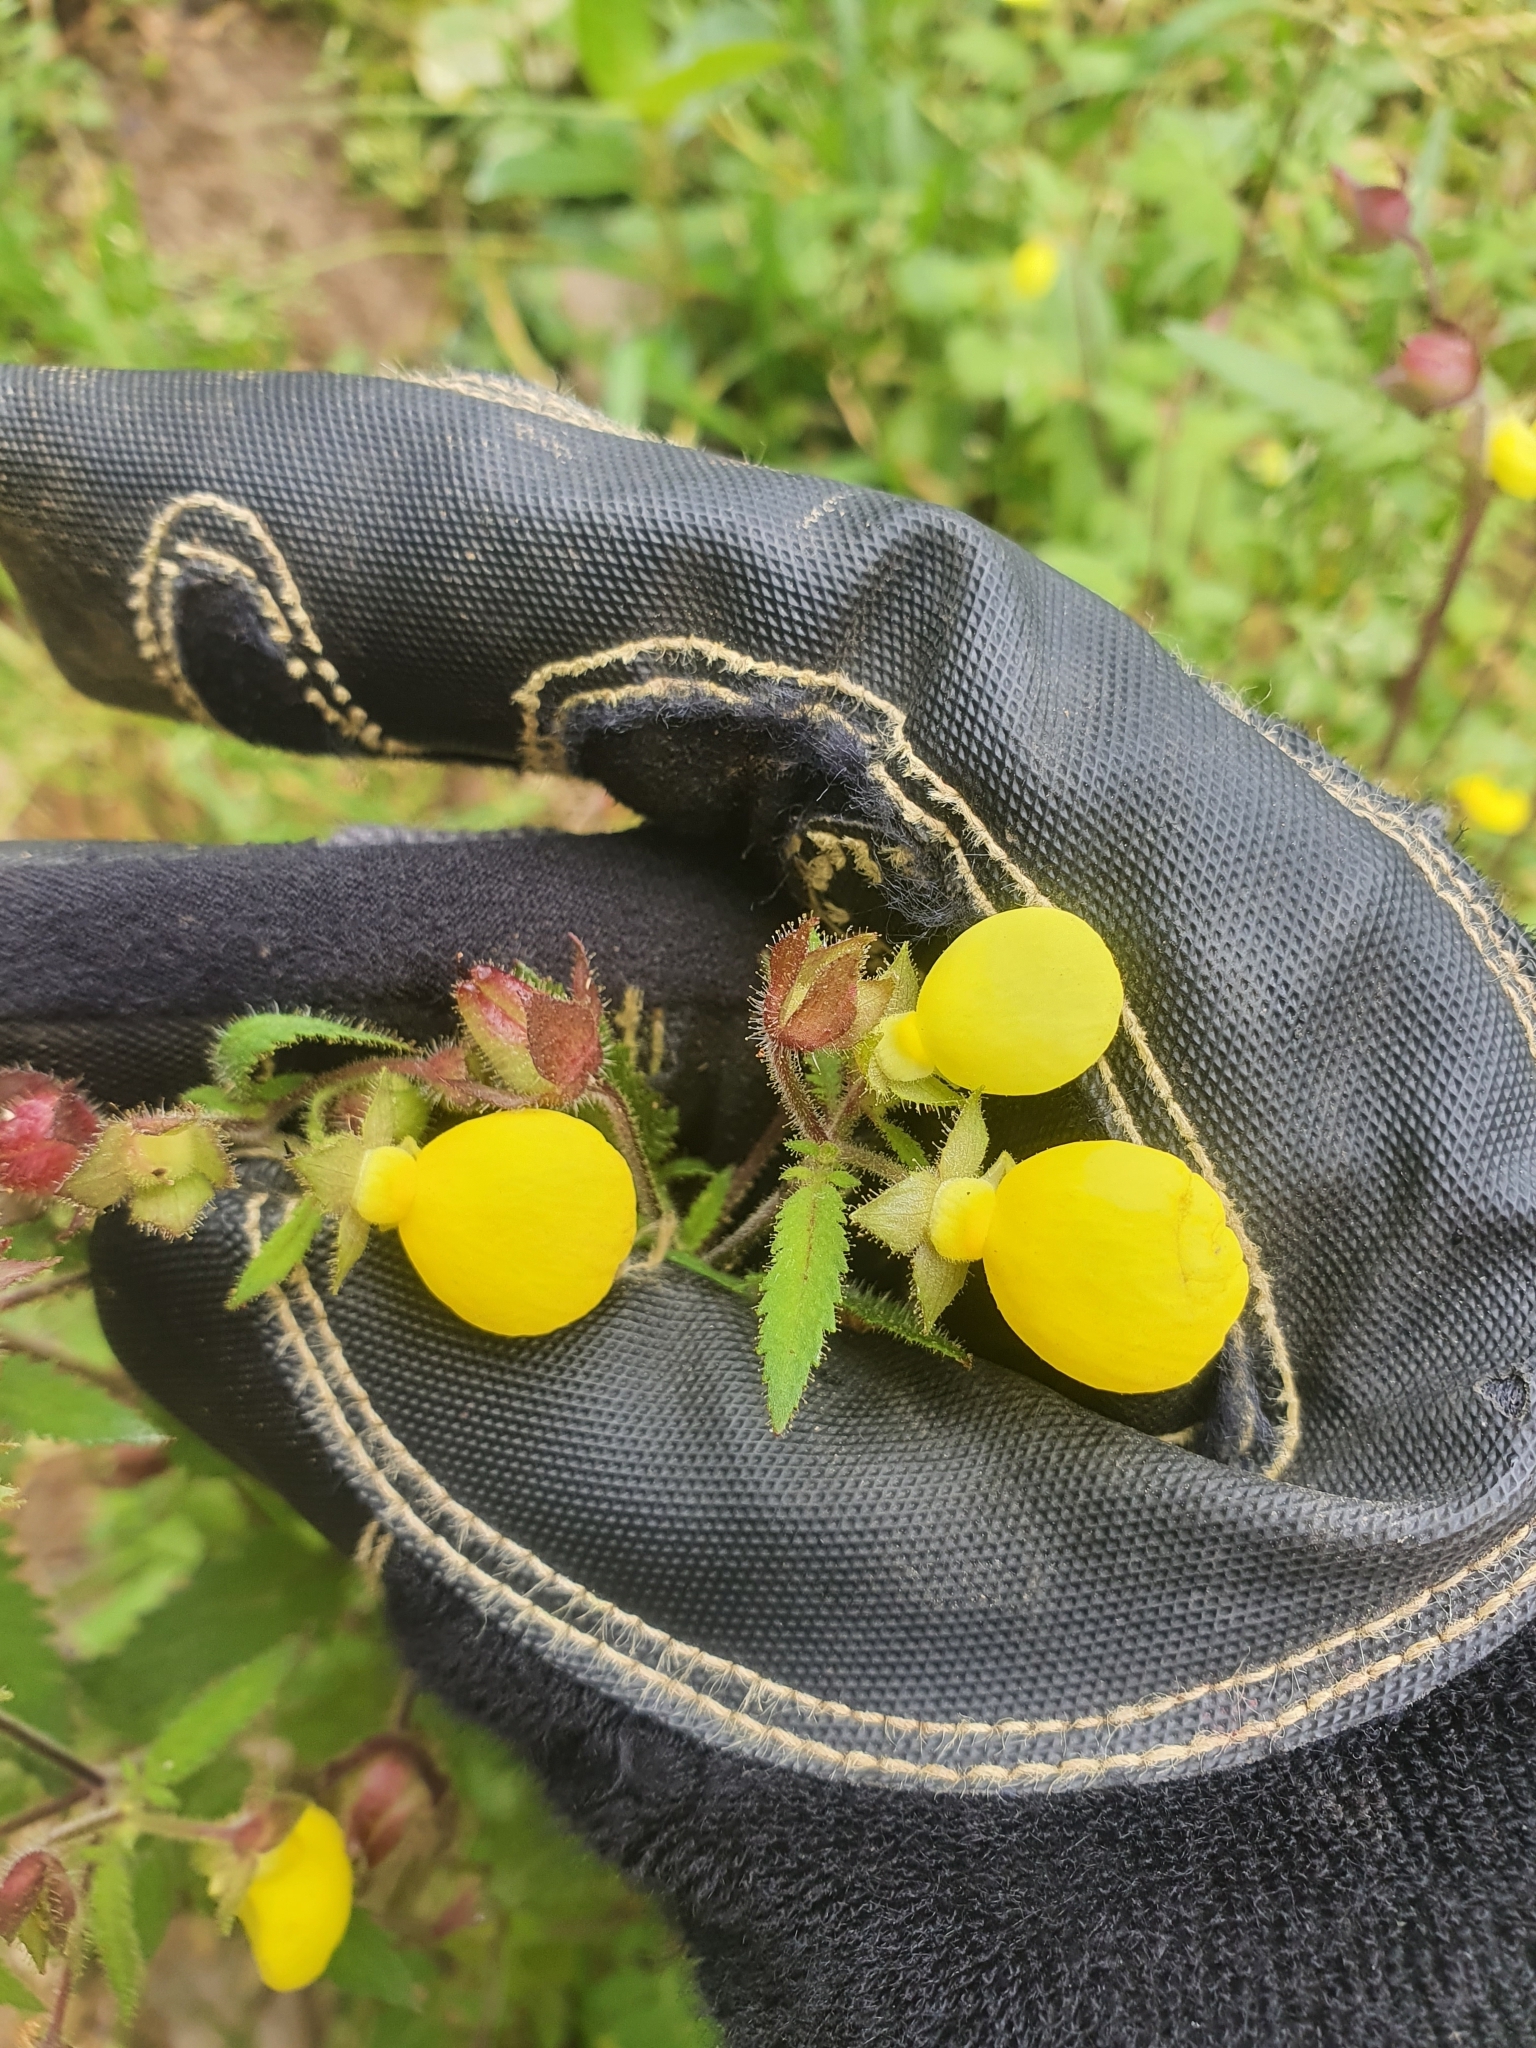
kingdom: Plantae
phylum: Tracheophyta
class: Magnoliopsida
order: Lamiales
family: Calceolariaceae
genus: Calceolaria
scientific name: Calceolaria tripartita
